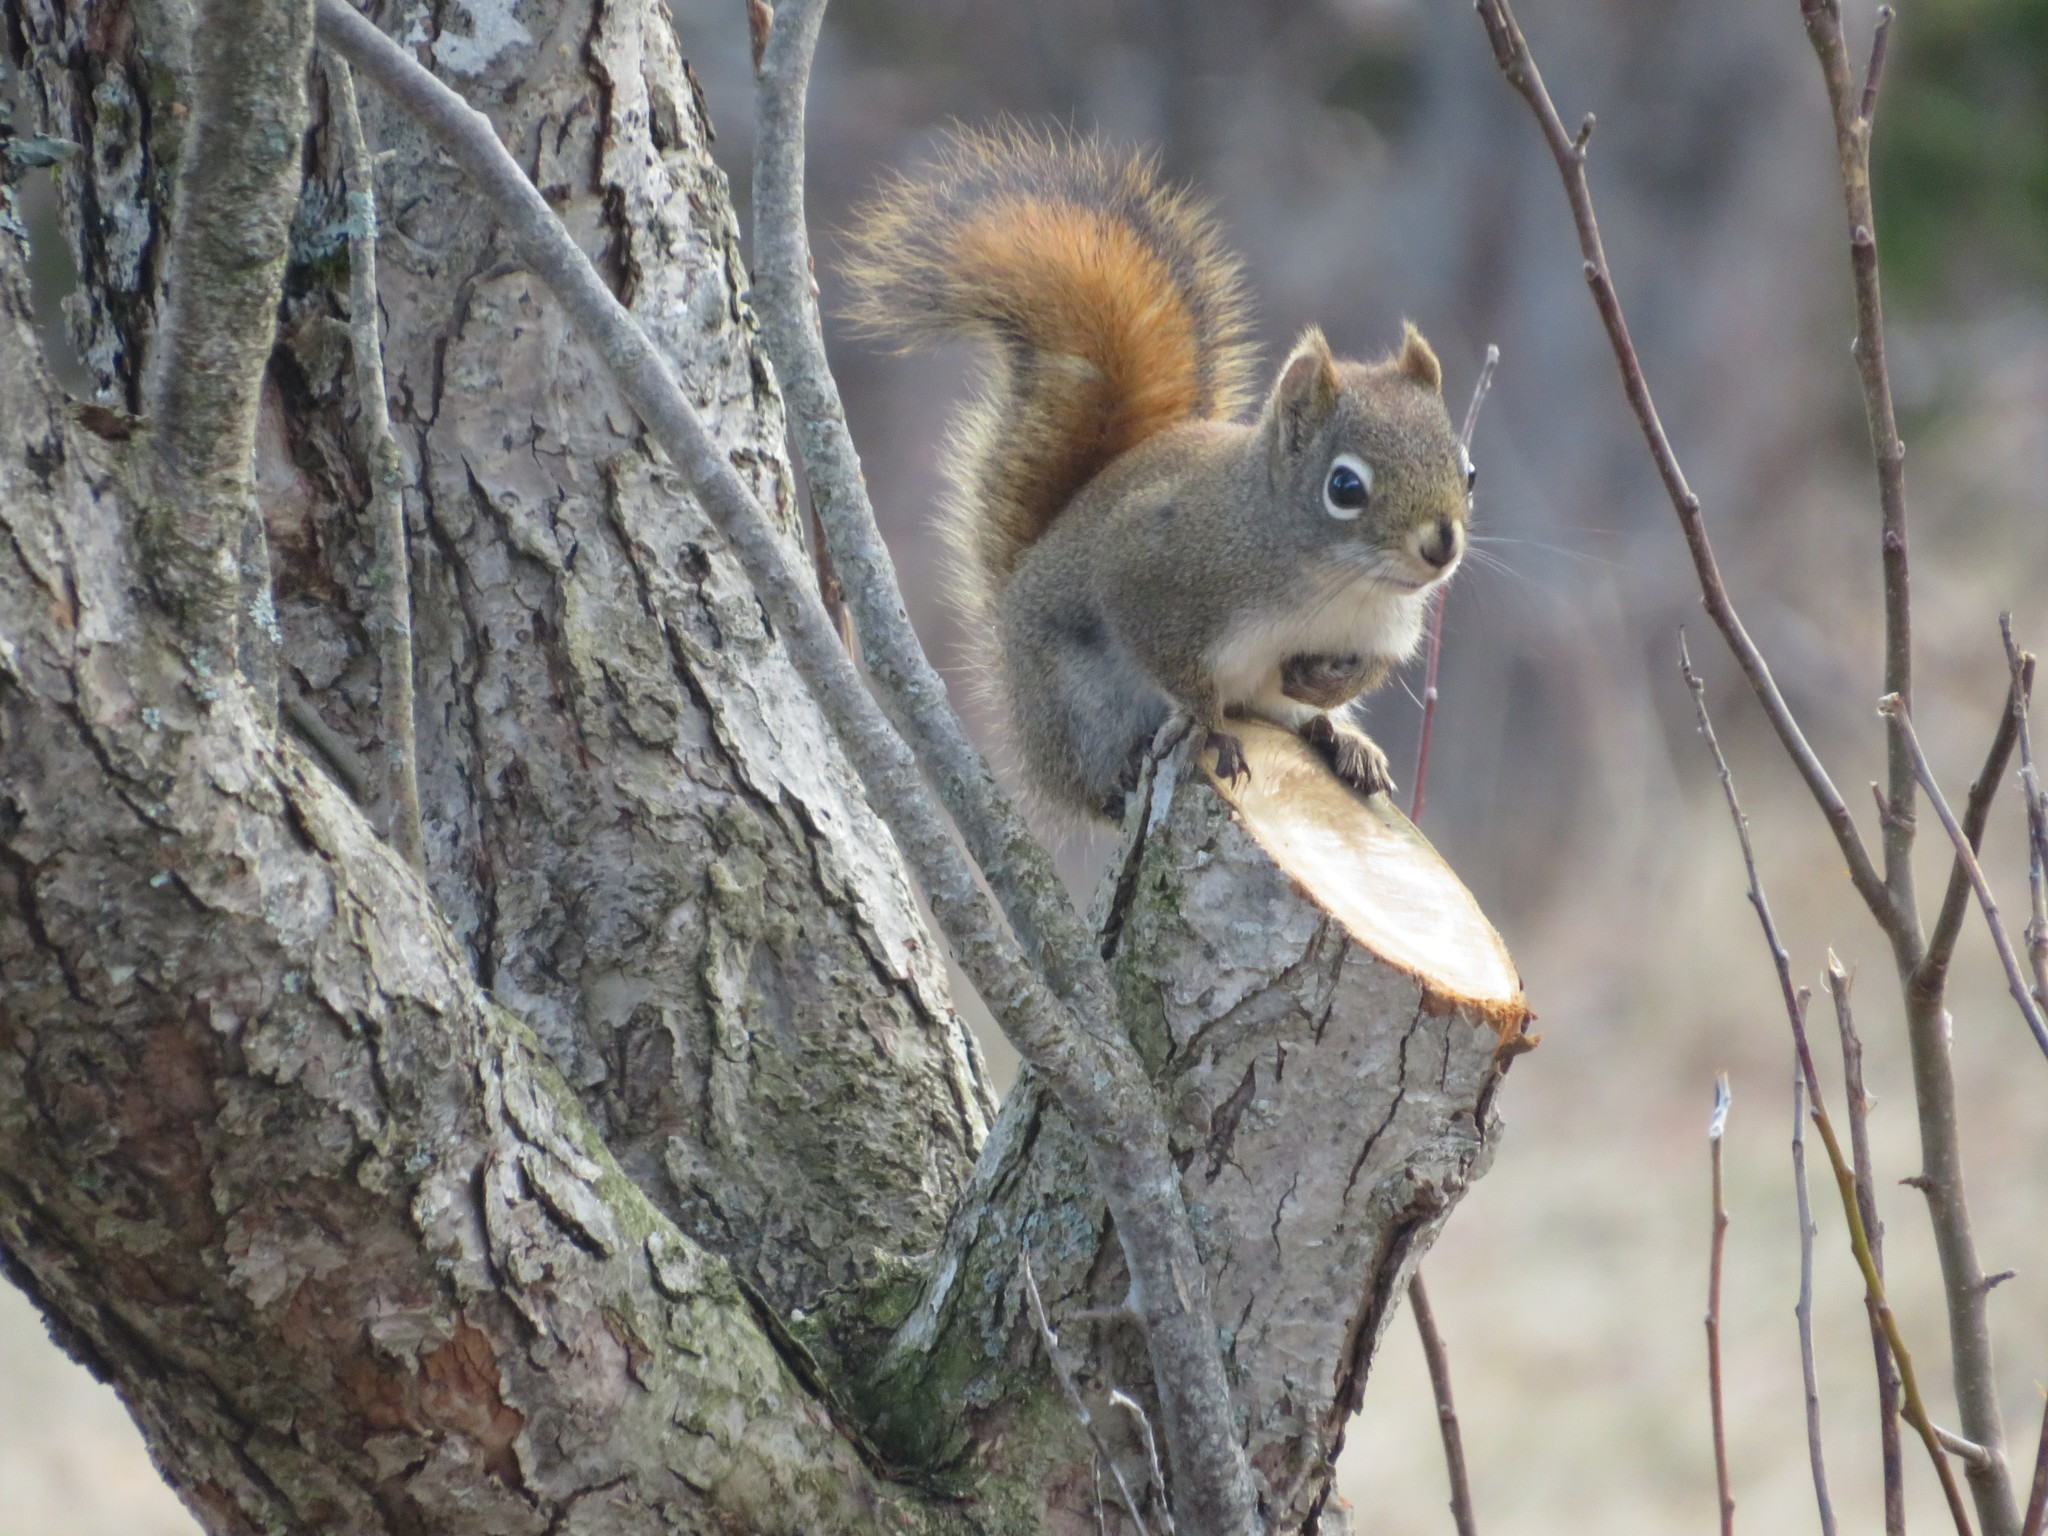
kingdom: Animalia
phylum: Chordata
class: Mammalia
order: Rodentia
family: Sciuridae
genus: Tamiasciurus
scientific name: Tamiasciurus hudsonicus
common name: Red squirrel
